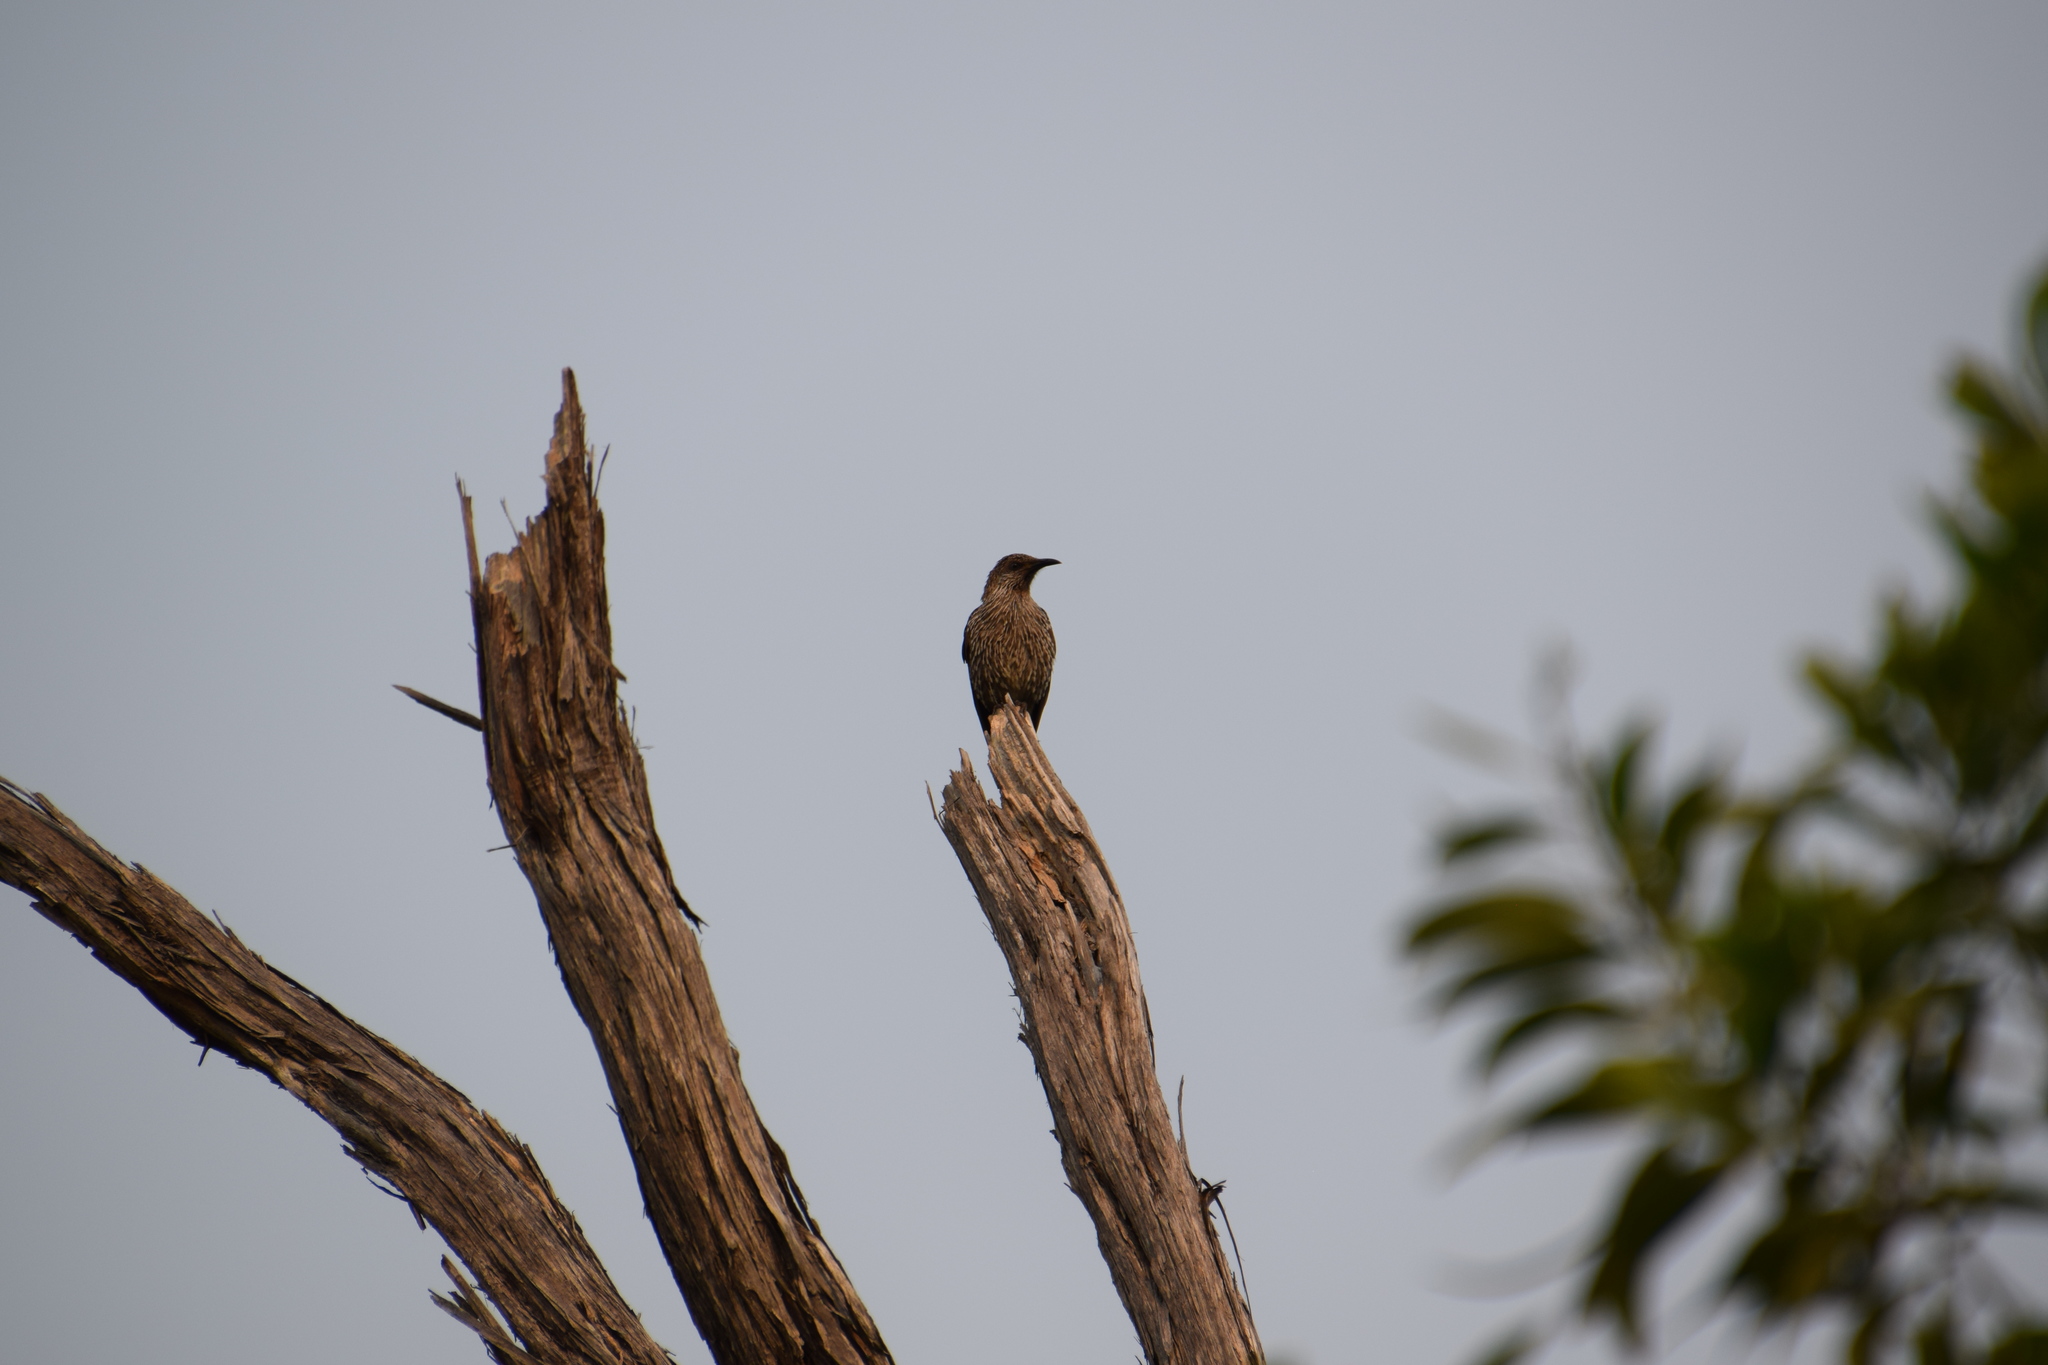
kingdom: Animalia
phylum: Chordata
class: Aves
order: Passeriformes
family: Meliphagidae
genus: Anthochaera
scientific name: Anthochaera chrysoptera
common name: Little wattlebird
